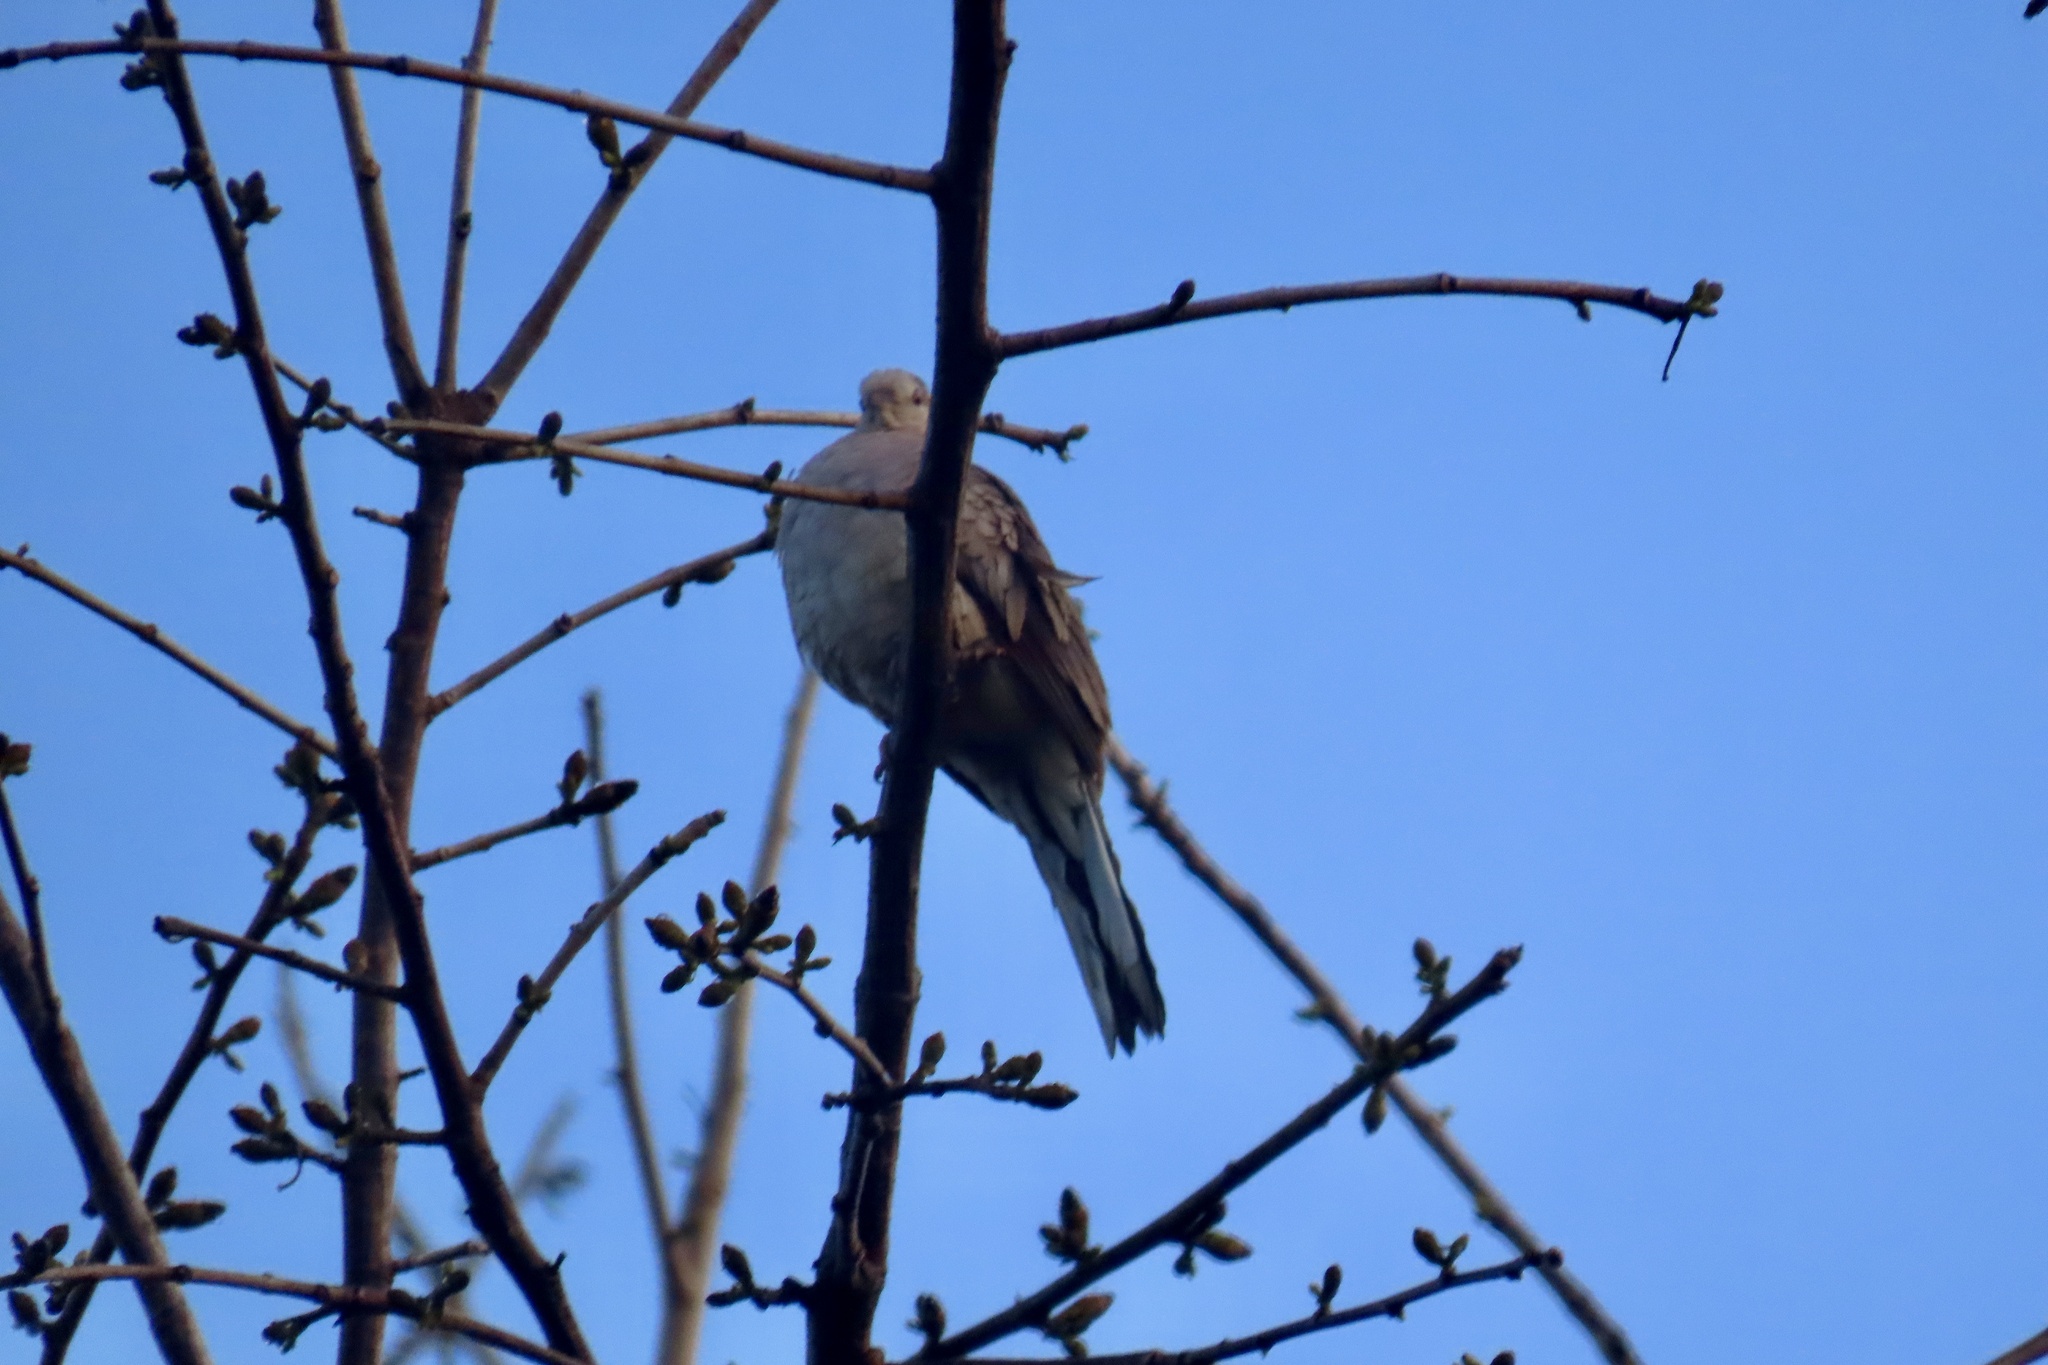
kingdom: Animalia
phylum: Chordata
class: Aves
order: Columbiformes
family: Columbidae
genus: Columbina
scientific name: Columbina inca
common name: Inca dove
